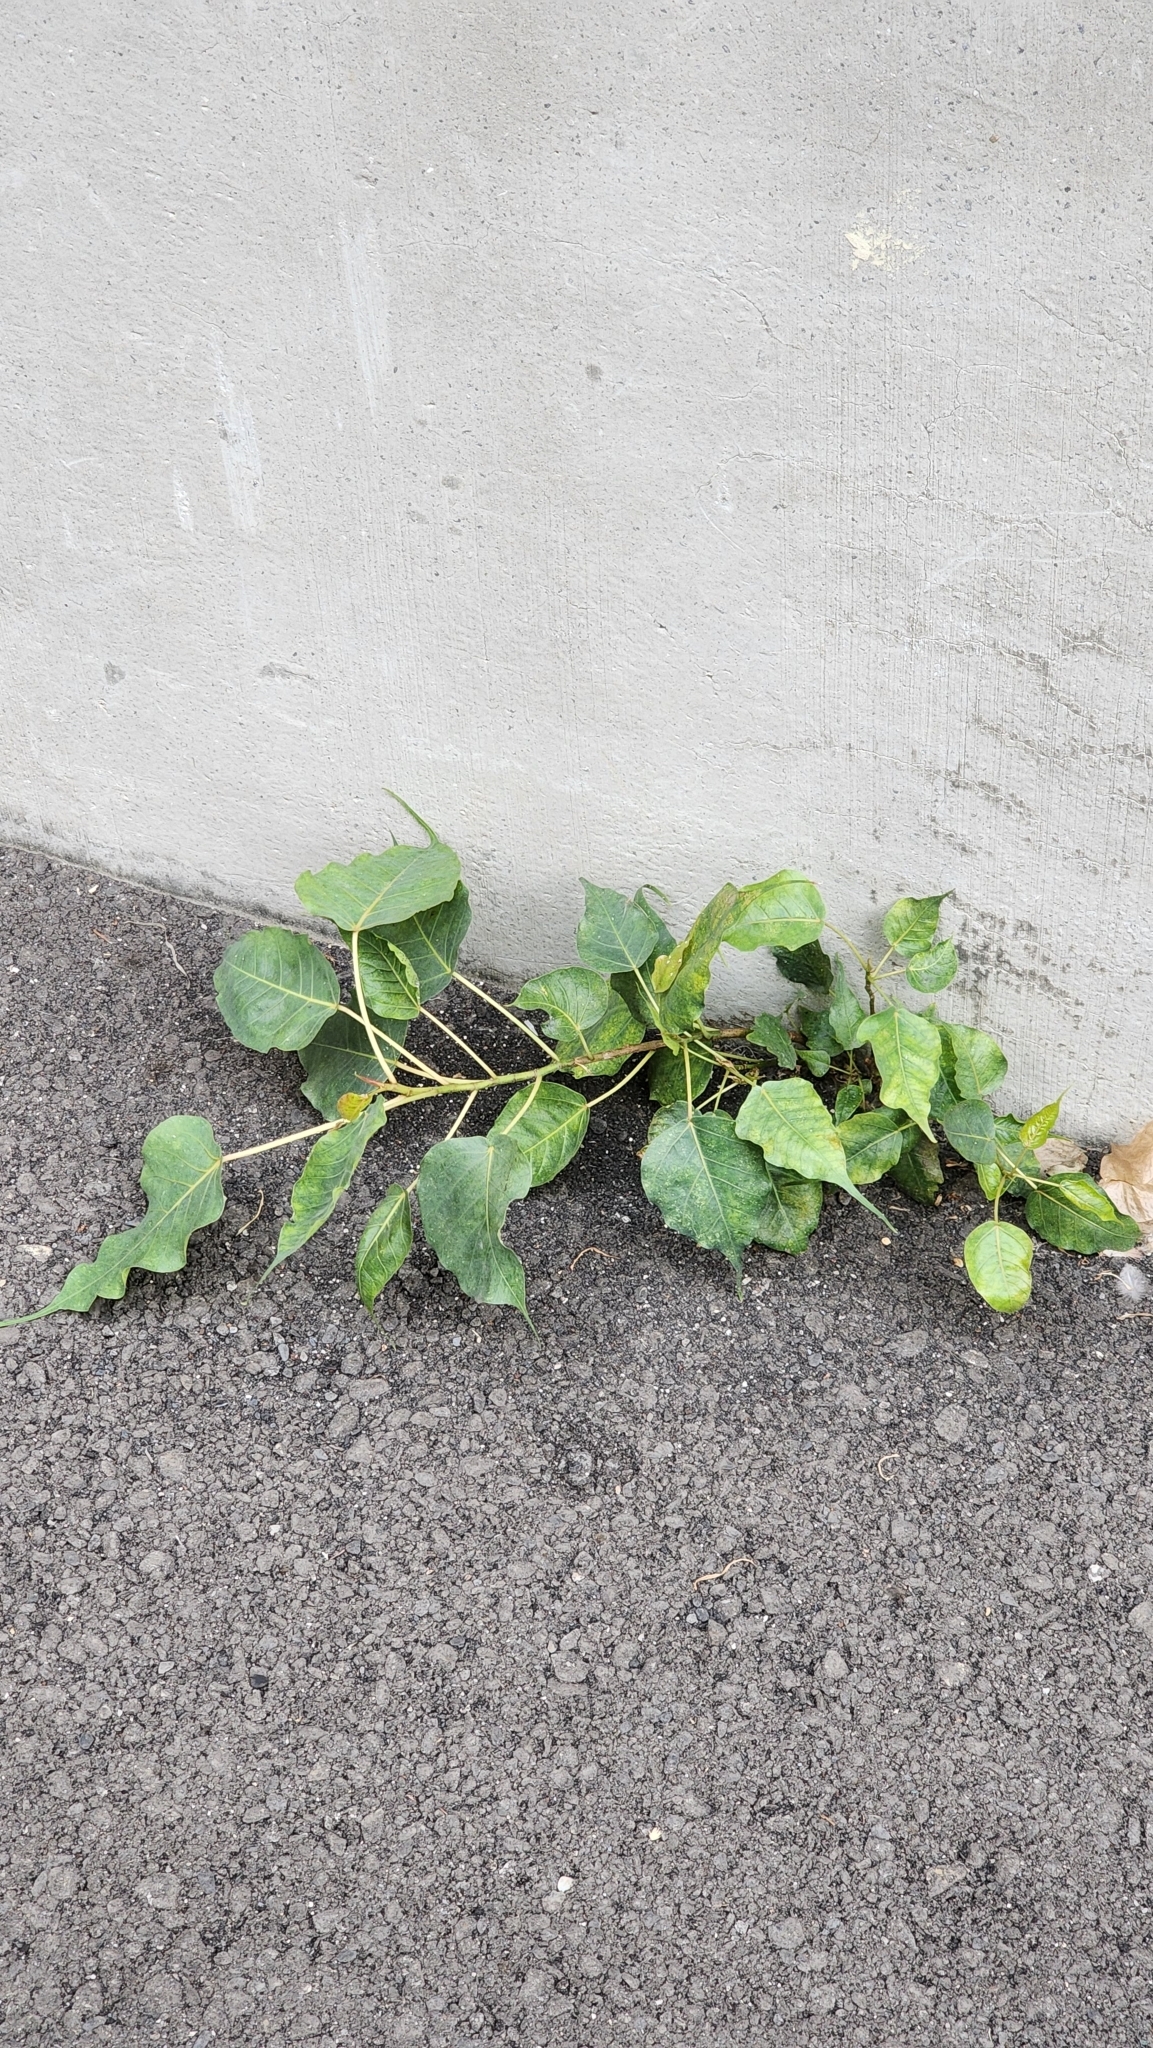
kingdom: Plantae
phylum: Tracheophyta
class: Magnoliopsida
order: Rosales
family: Moraceae
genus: Ficus
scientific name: Ficus religiosa
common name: Bodhi tree
